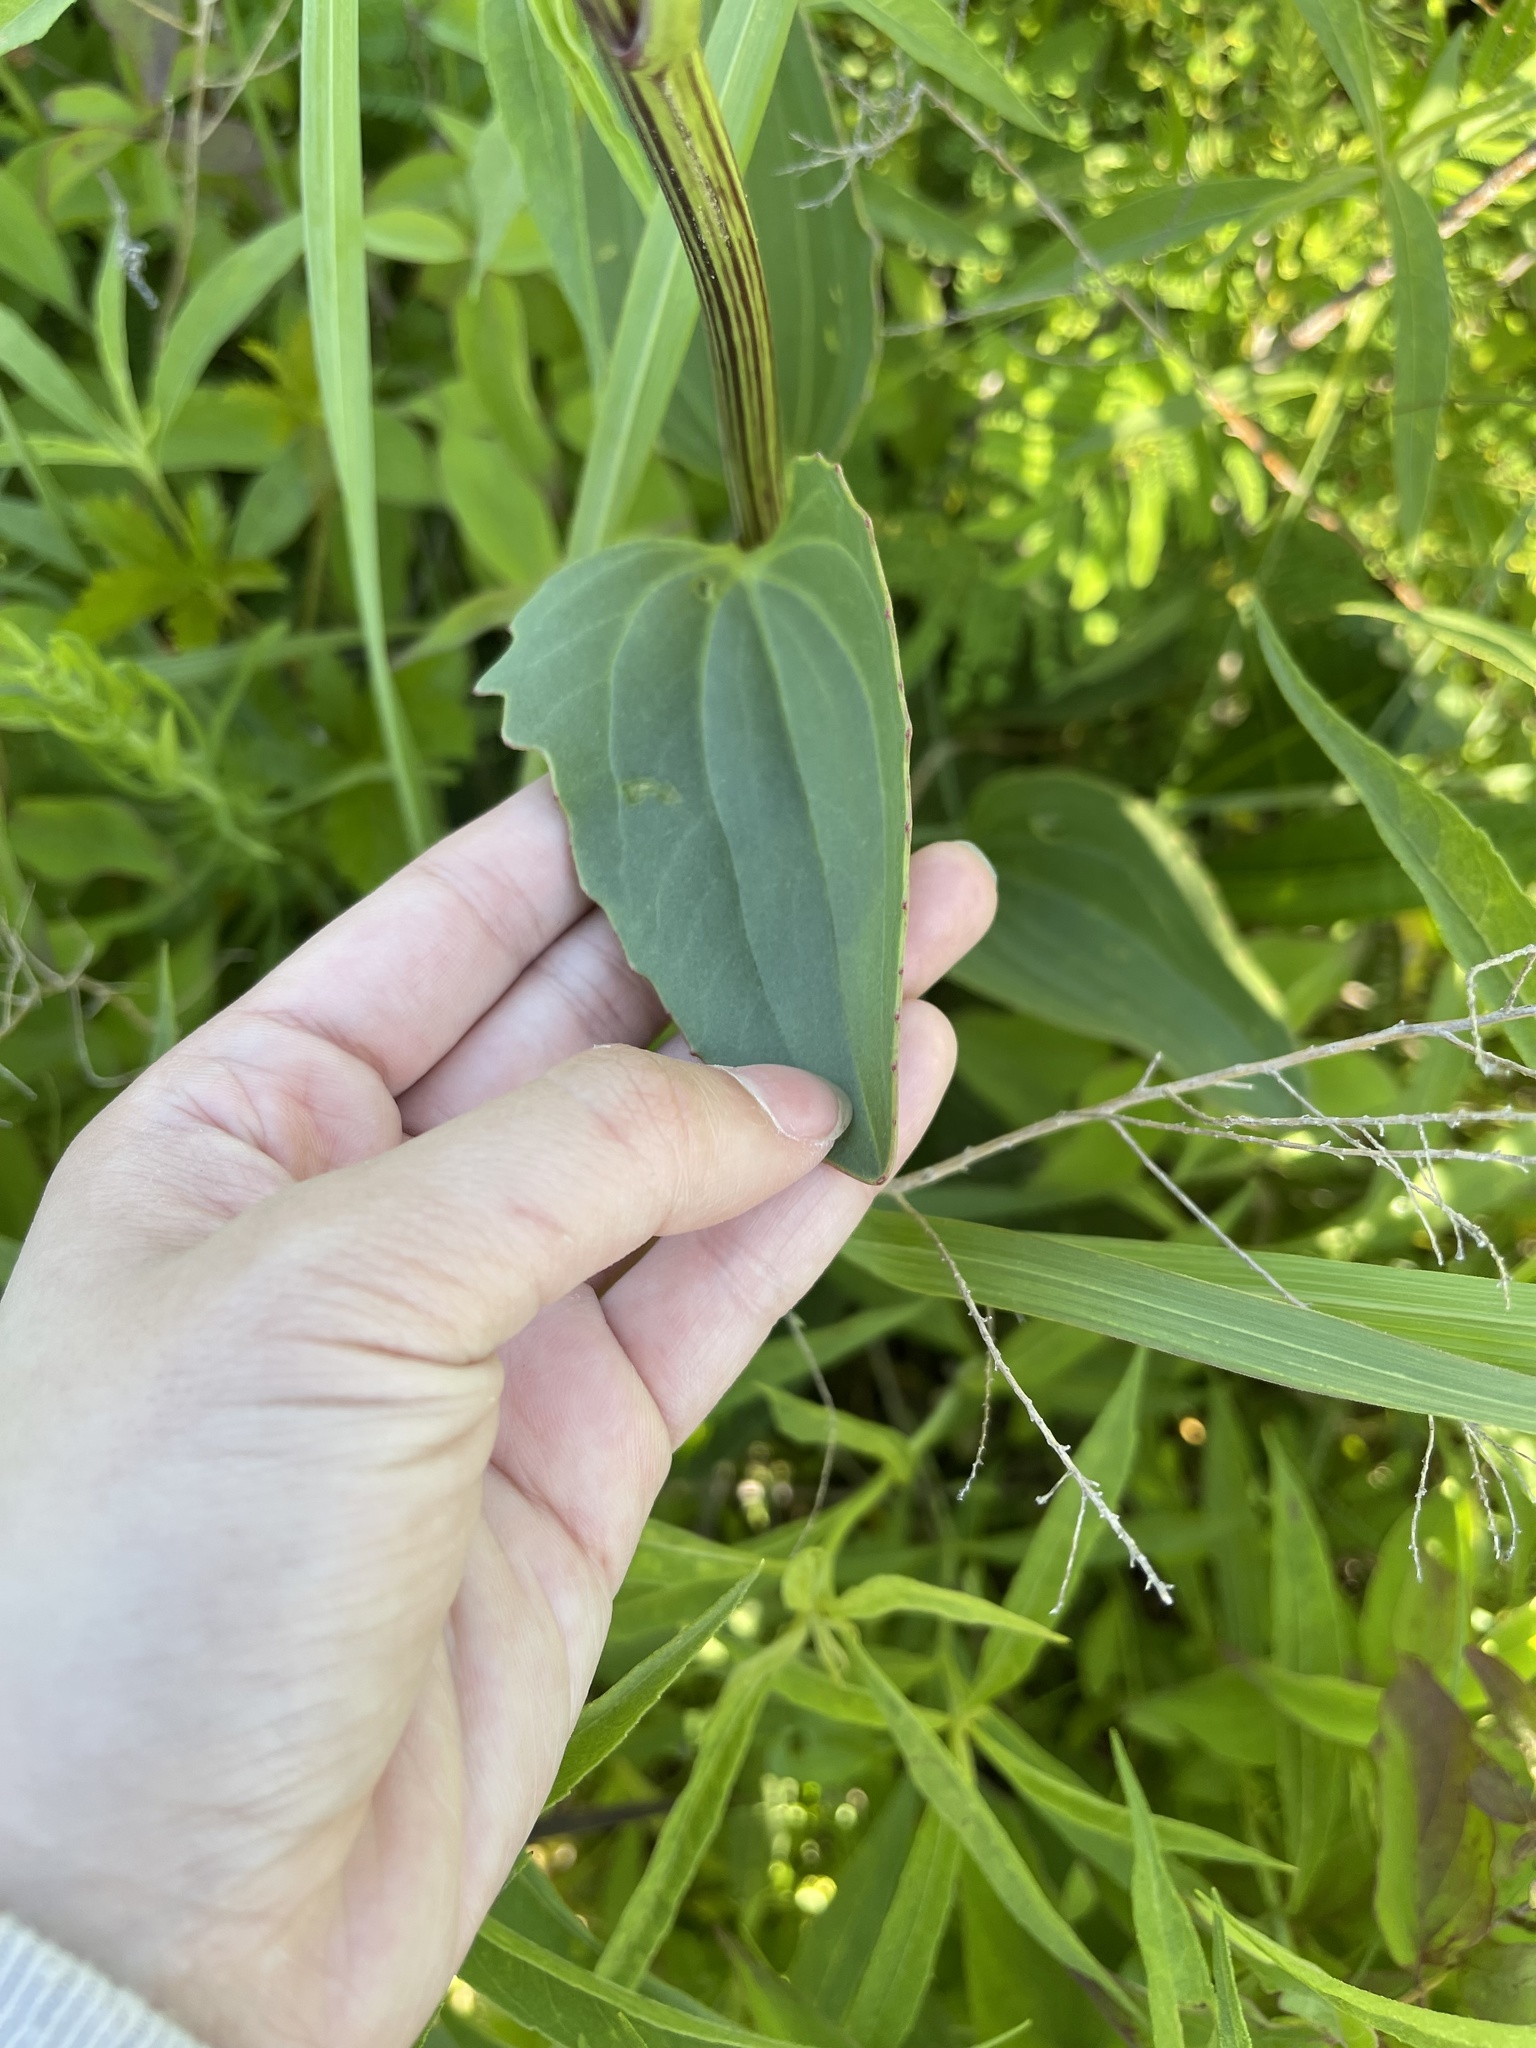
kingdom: Plantae
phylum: Tracheophyta
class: Magnoliopsida
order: Asterales
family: Asteraceae
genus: Arnoglossum
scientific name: Arnoglossum plantagineum
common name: Groove-stemmed indian-plantain
